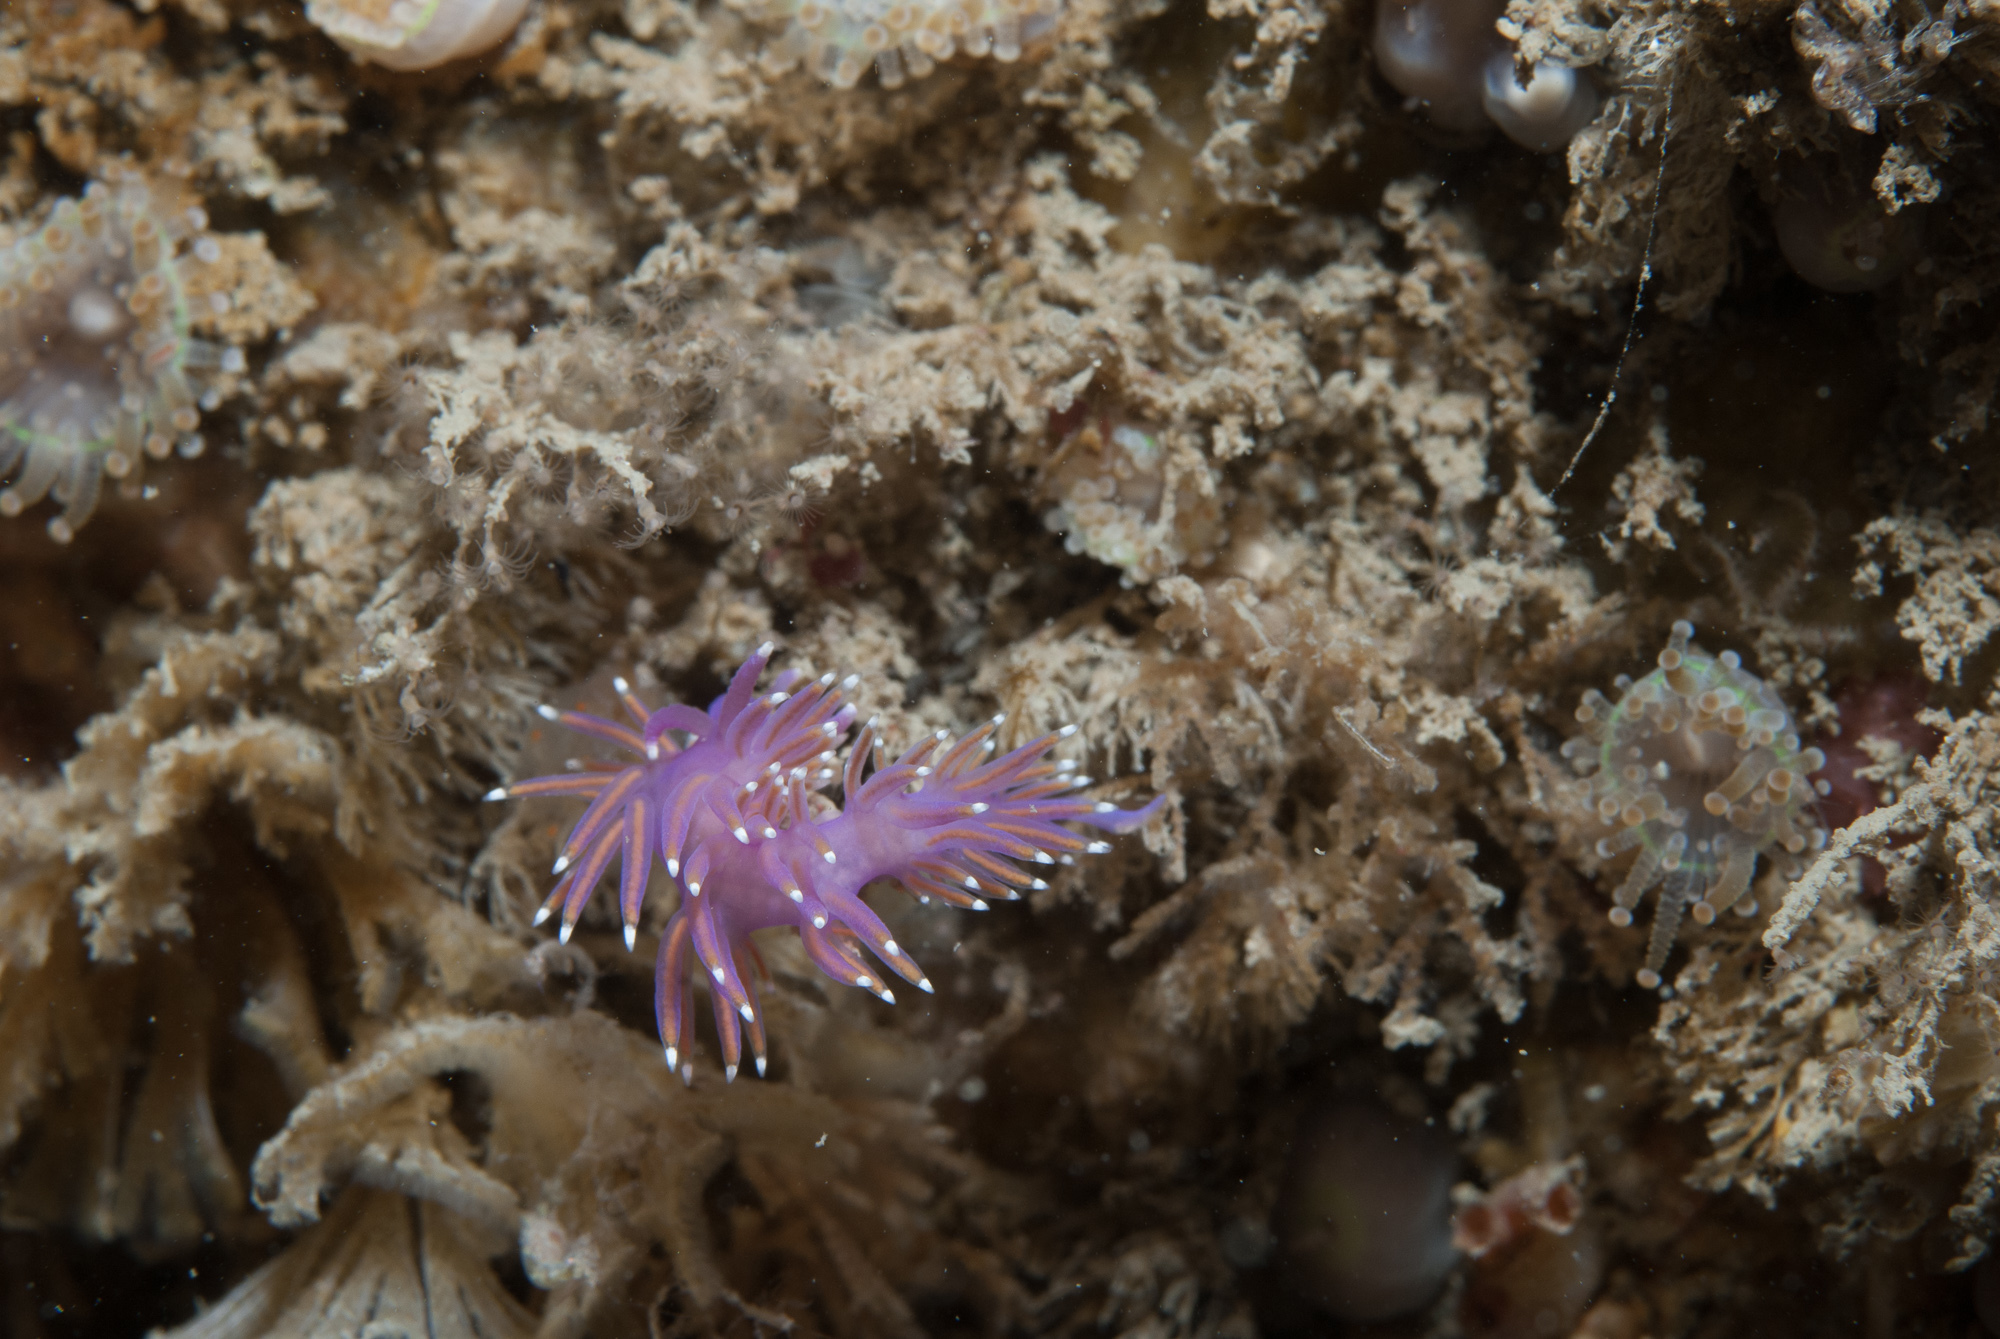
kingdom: Animalia
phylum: Mollusca
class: Gastropoda
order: Nudibranchia
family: Flabellinidae
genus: Edmundsella
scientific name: Edmundsella pedata
